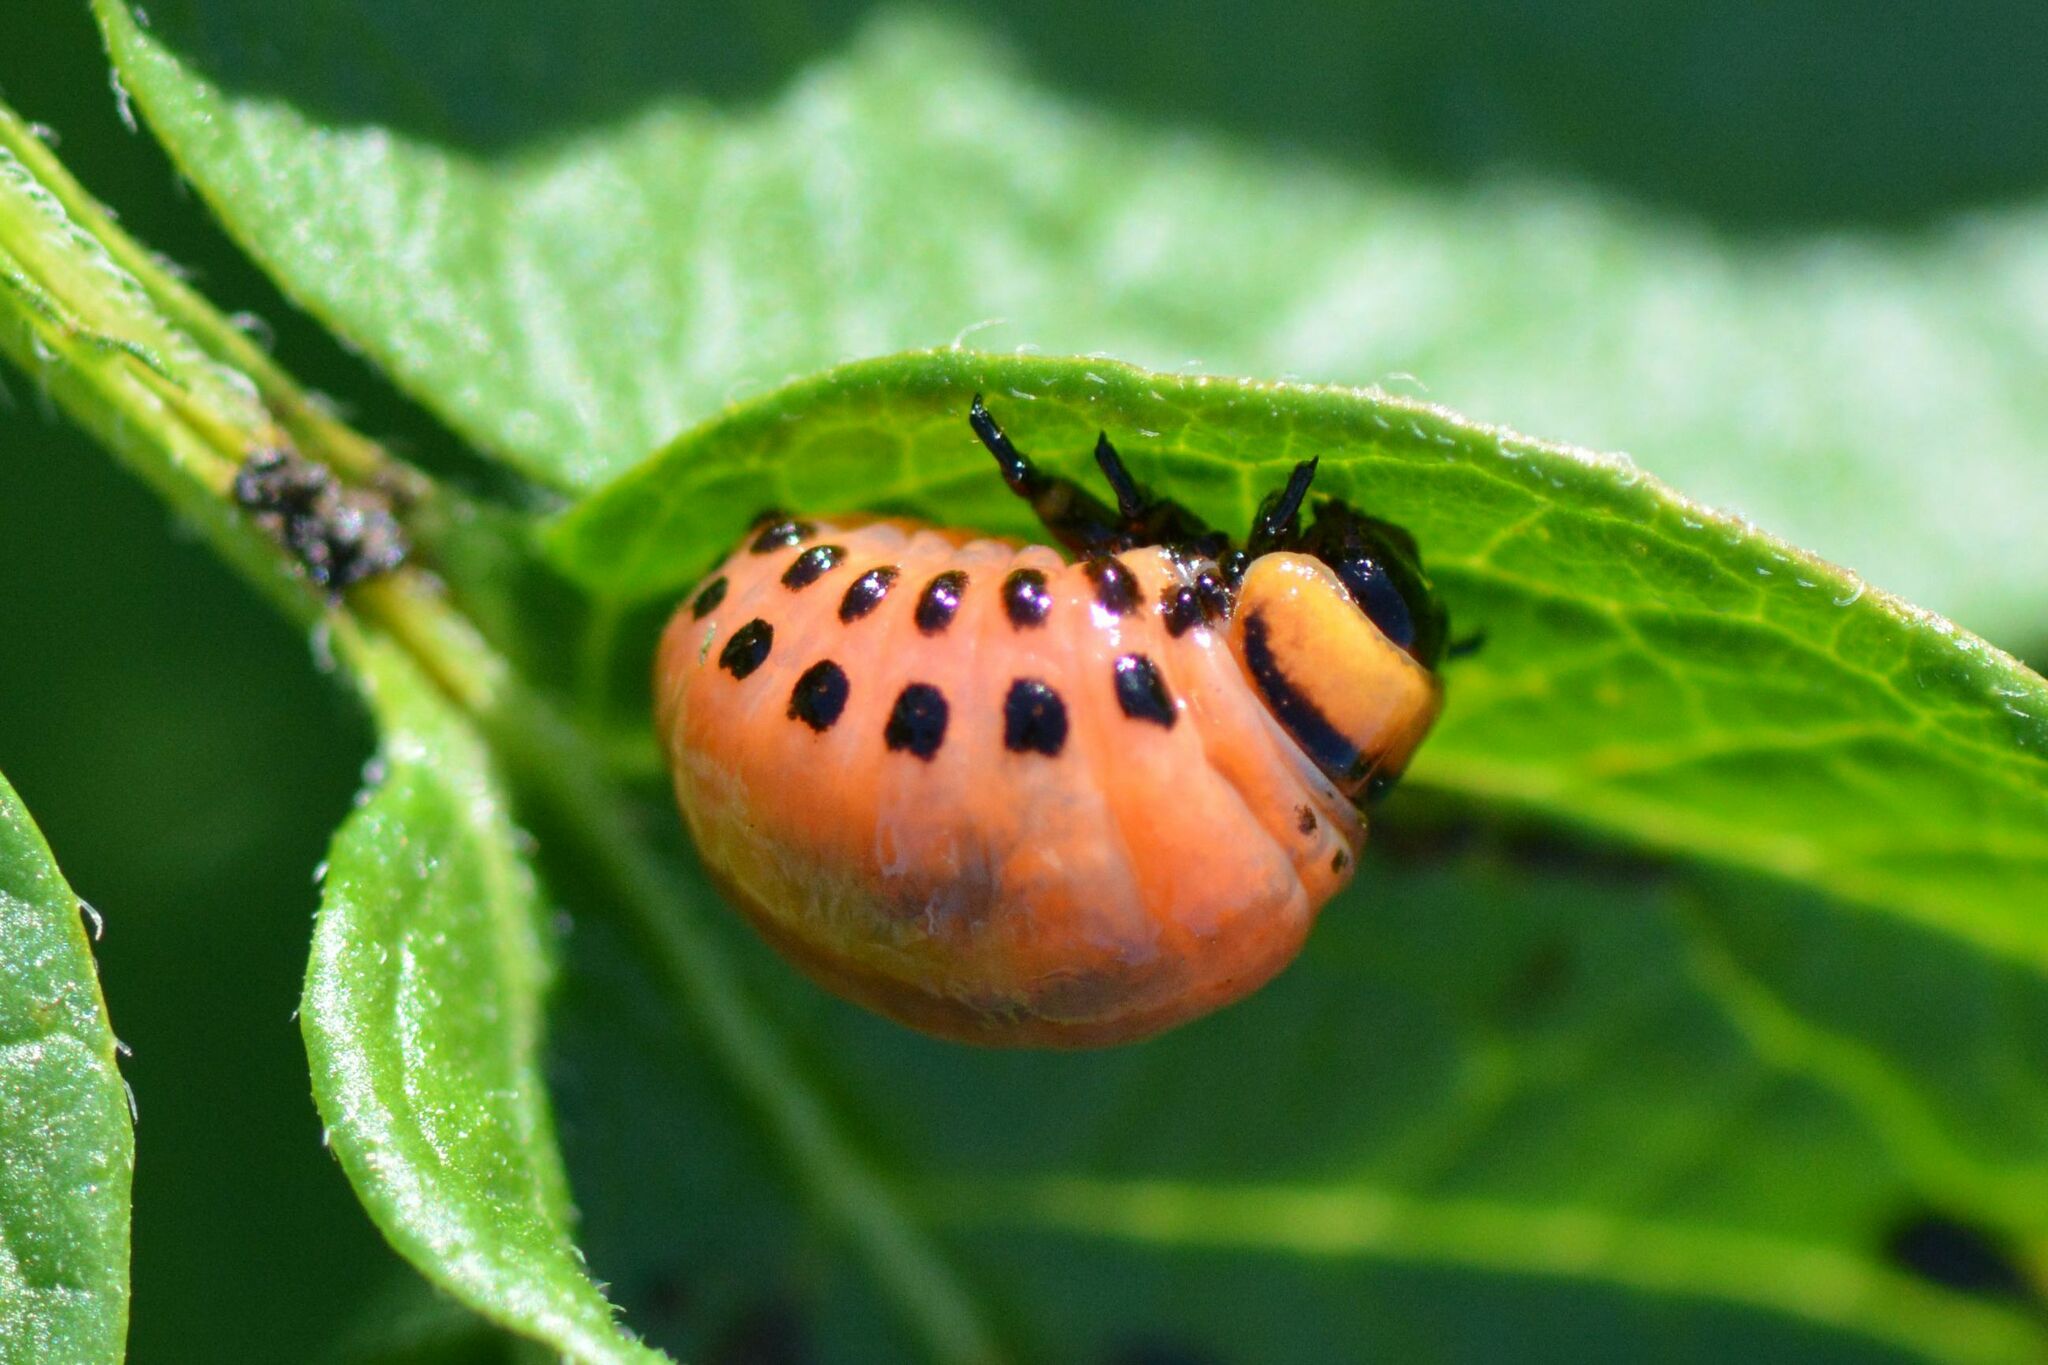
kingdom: Animalia
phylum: Arthropoda
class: Insecta
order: Coleoptera
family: Chrysomelidae
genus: Leptinotarsa
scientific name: Leptinotarsa decemlineata
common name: Colorado potato beetle
